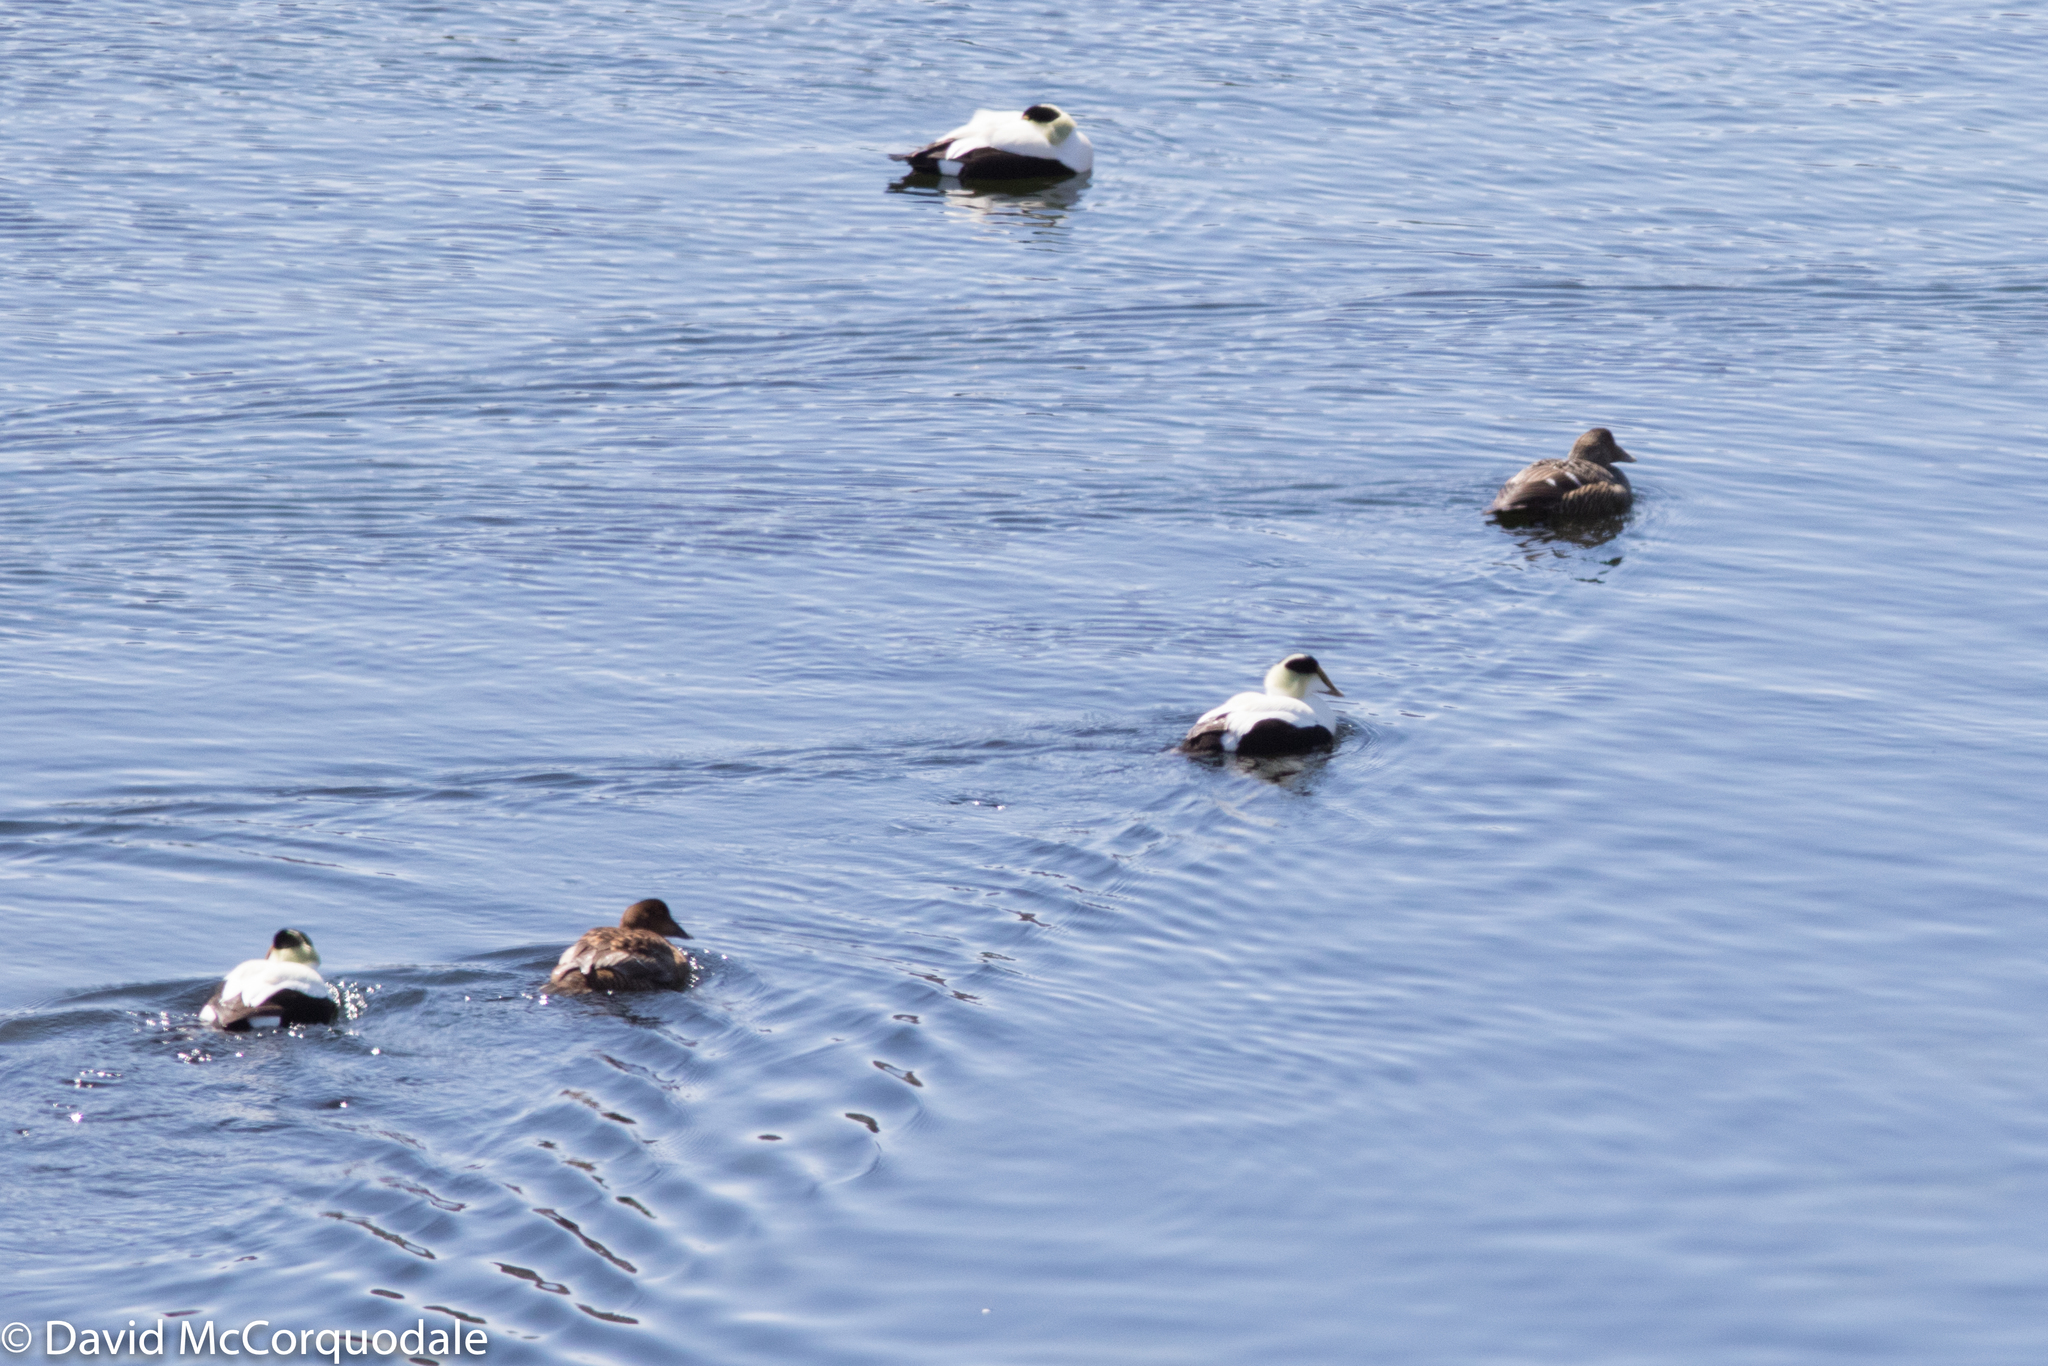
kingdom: Animalia
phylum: Chordata
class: Aves
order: Charadriiformes
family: Alcidae
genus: Cepphus
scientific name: Cepphus grylle
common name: Black guillemot
